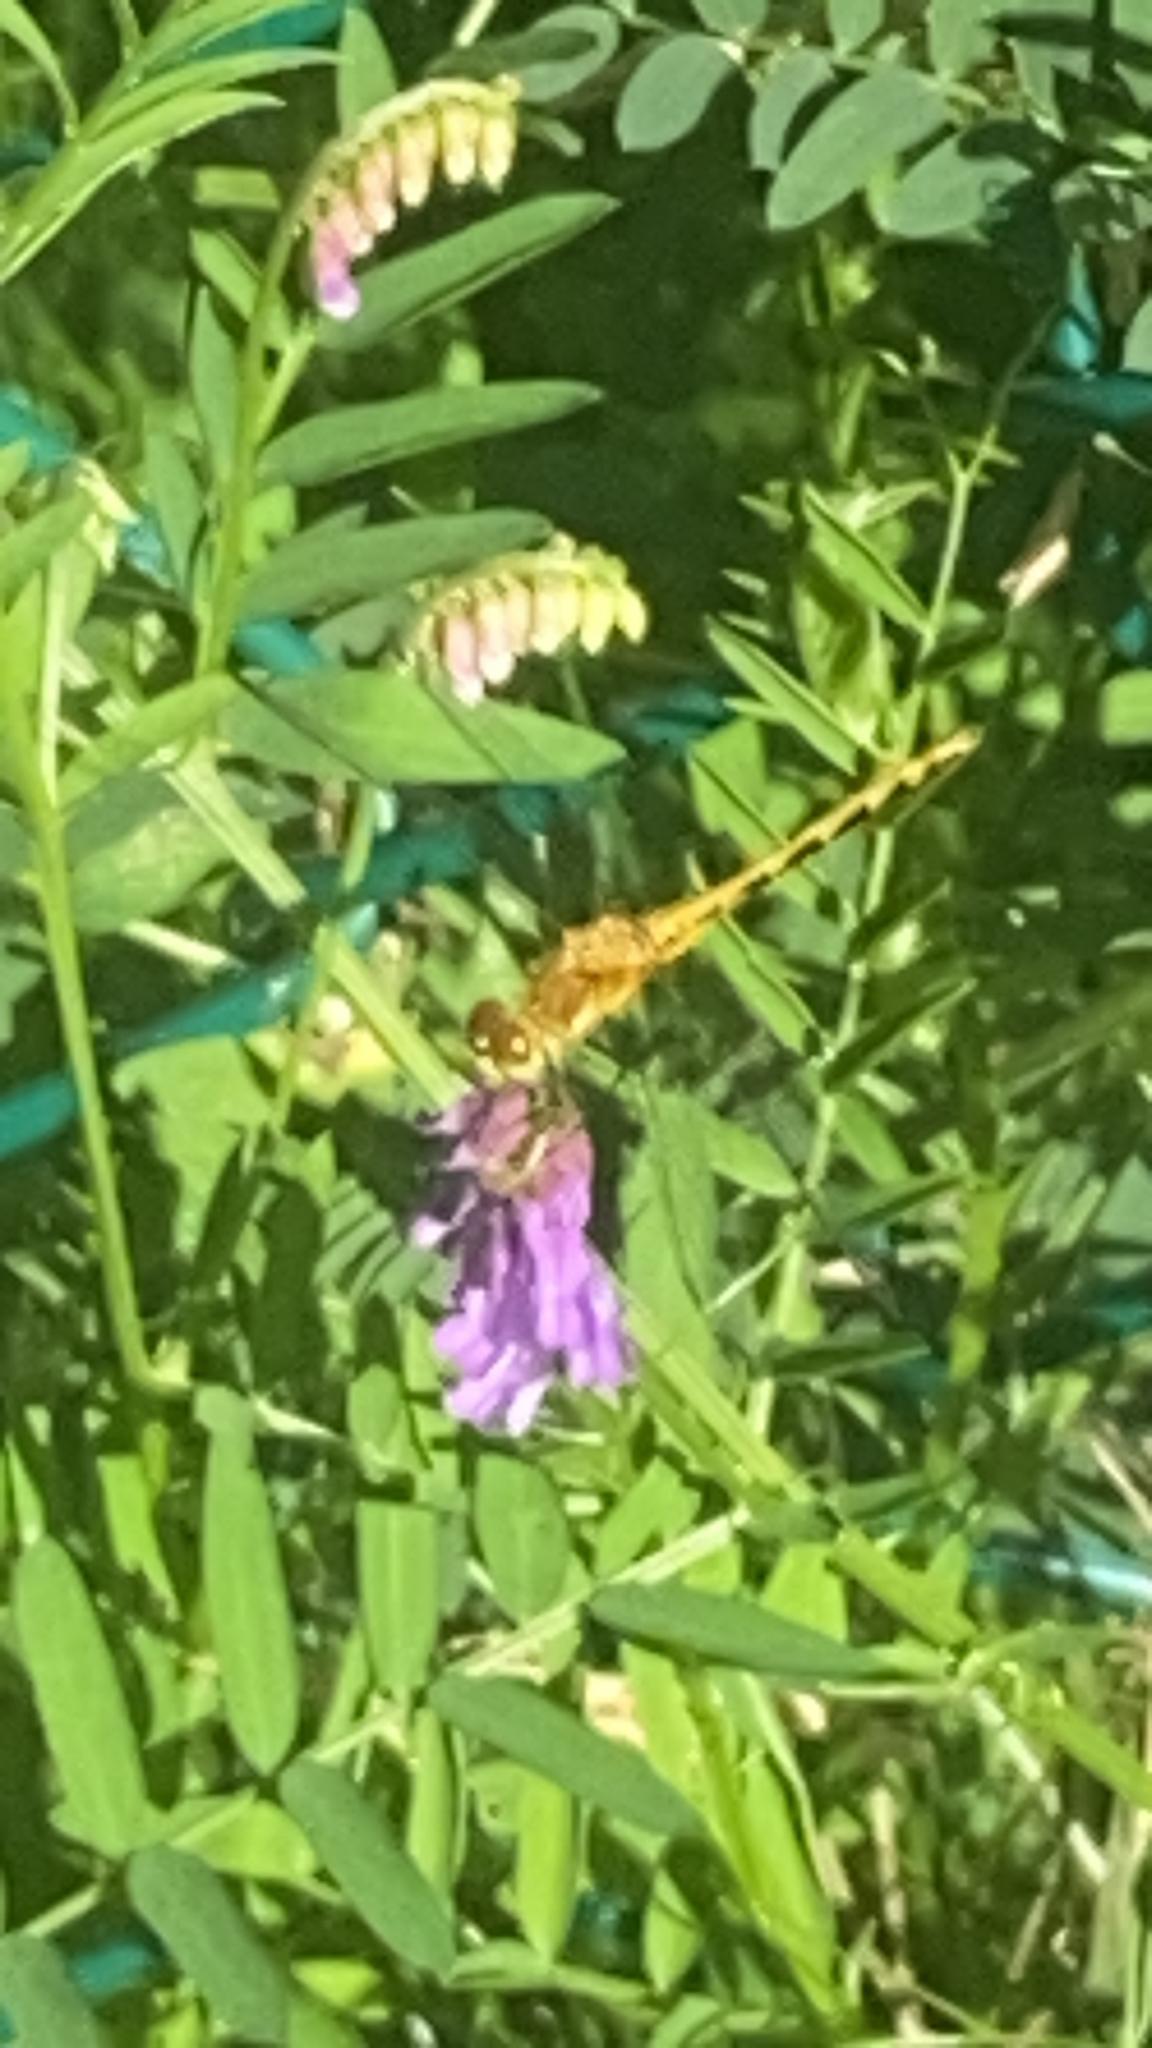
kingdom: Animalia
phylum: Arthropoda
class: Insecta
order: Odonata
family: Libellulidae
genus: Sympetrum
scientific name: Sympetrum
